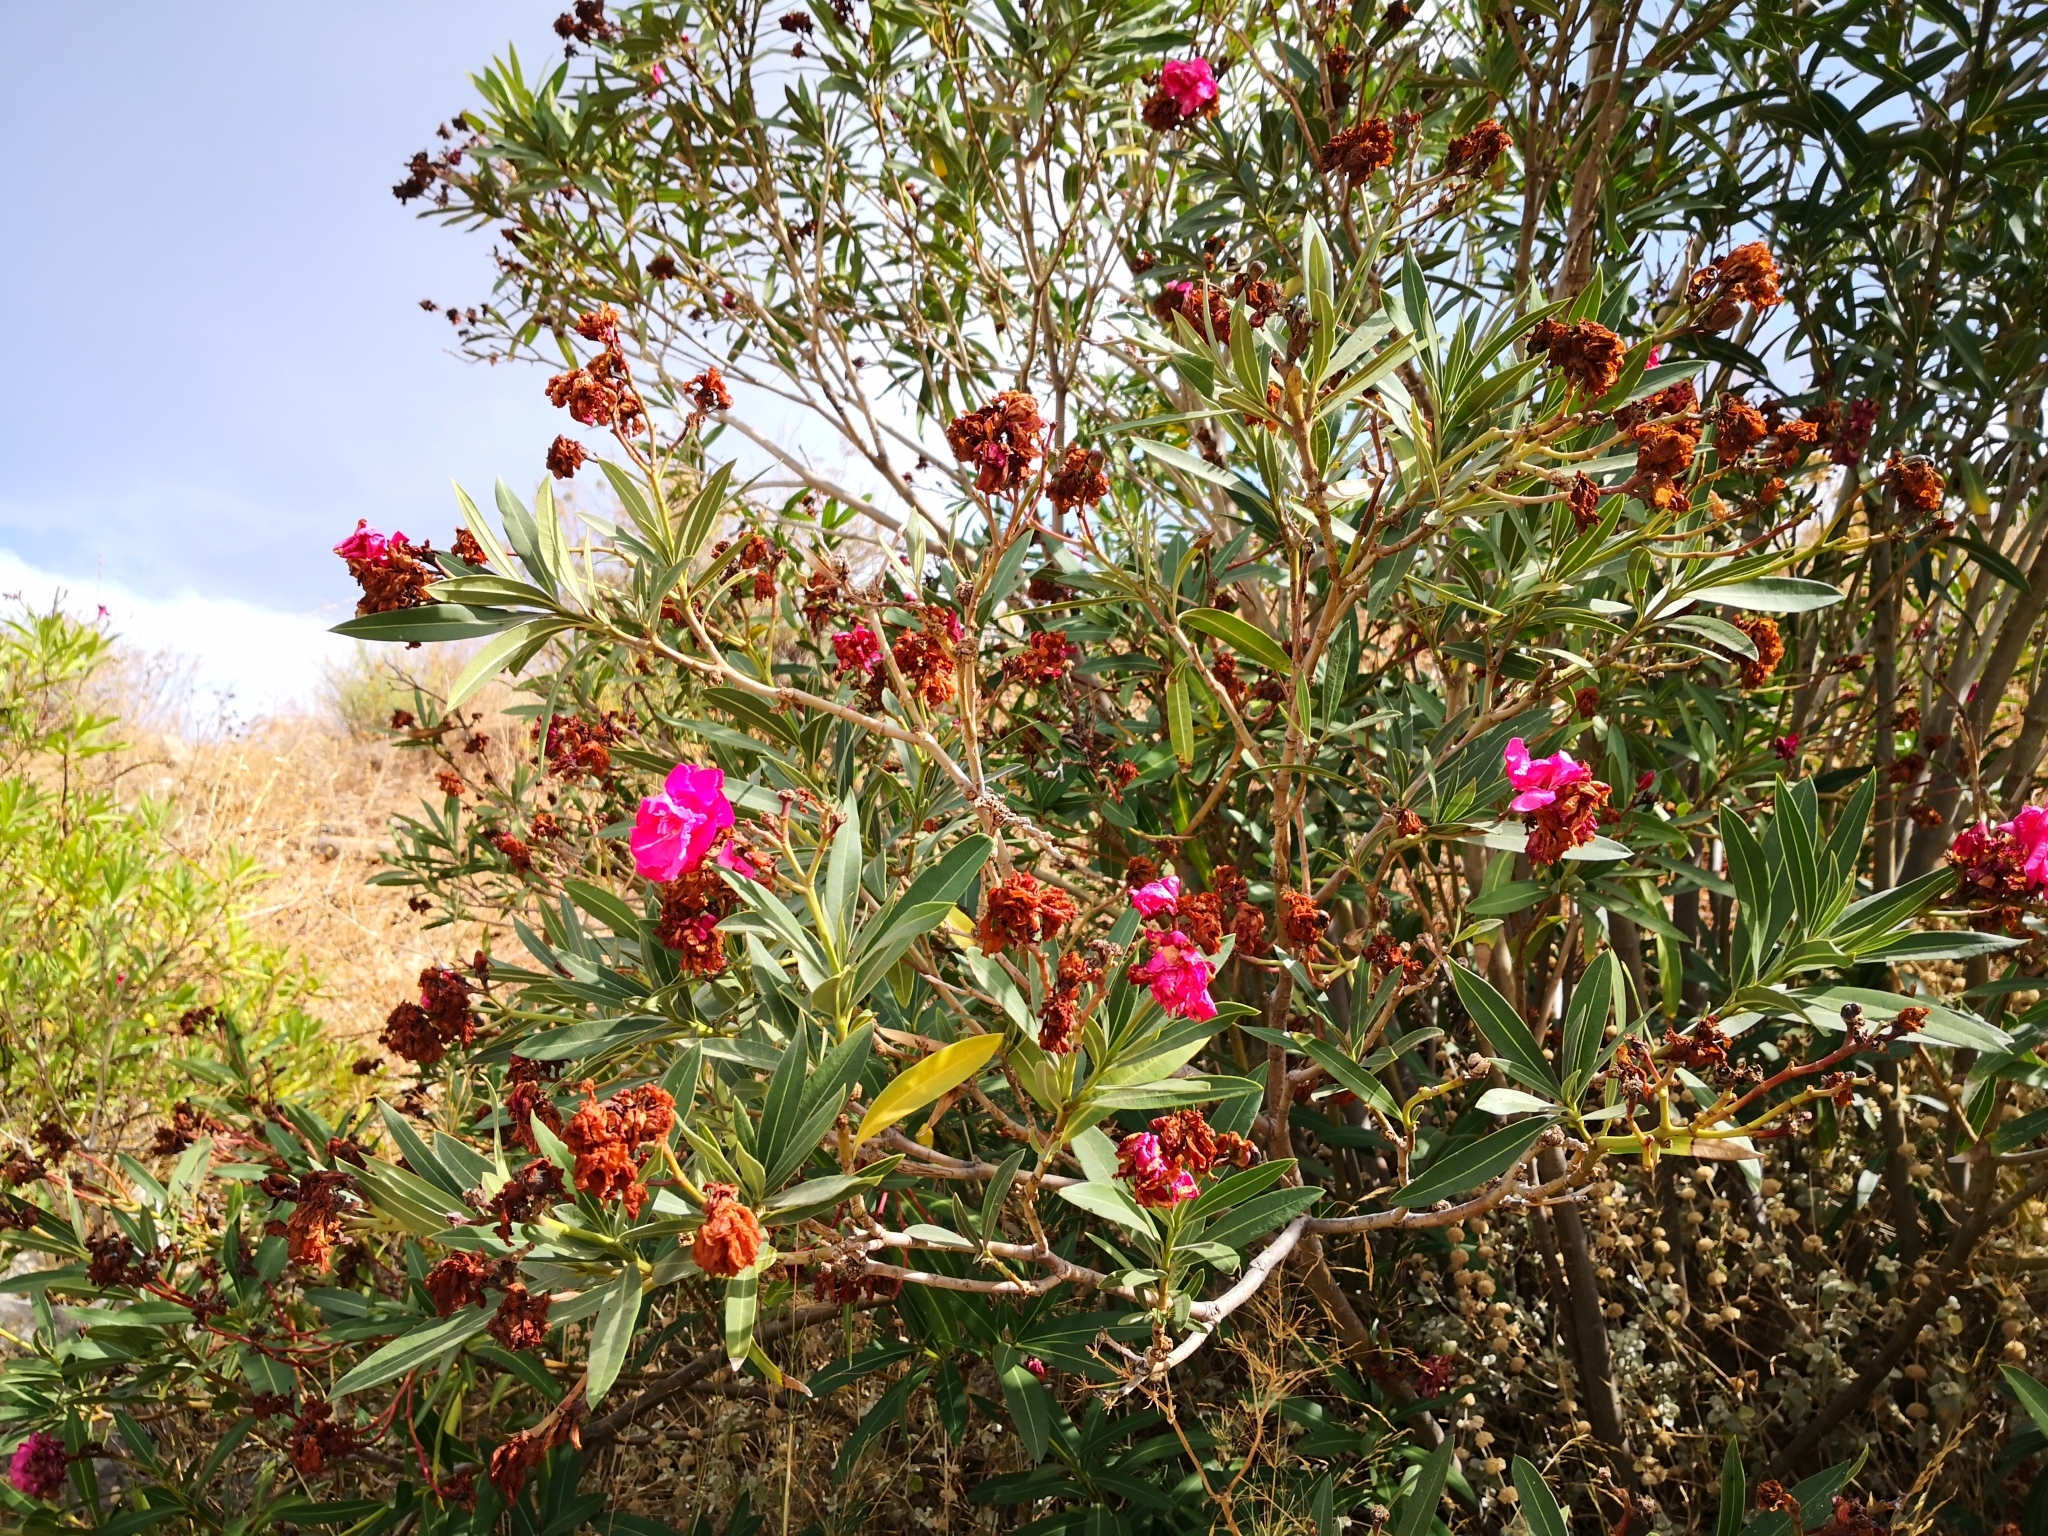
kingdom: Plantae
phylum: Tracheophyta
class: Magnoliopsida
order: Gentianales
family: Apocynaceae
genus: Nerium
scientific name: Nerium oleander
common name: Oleander
